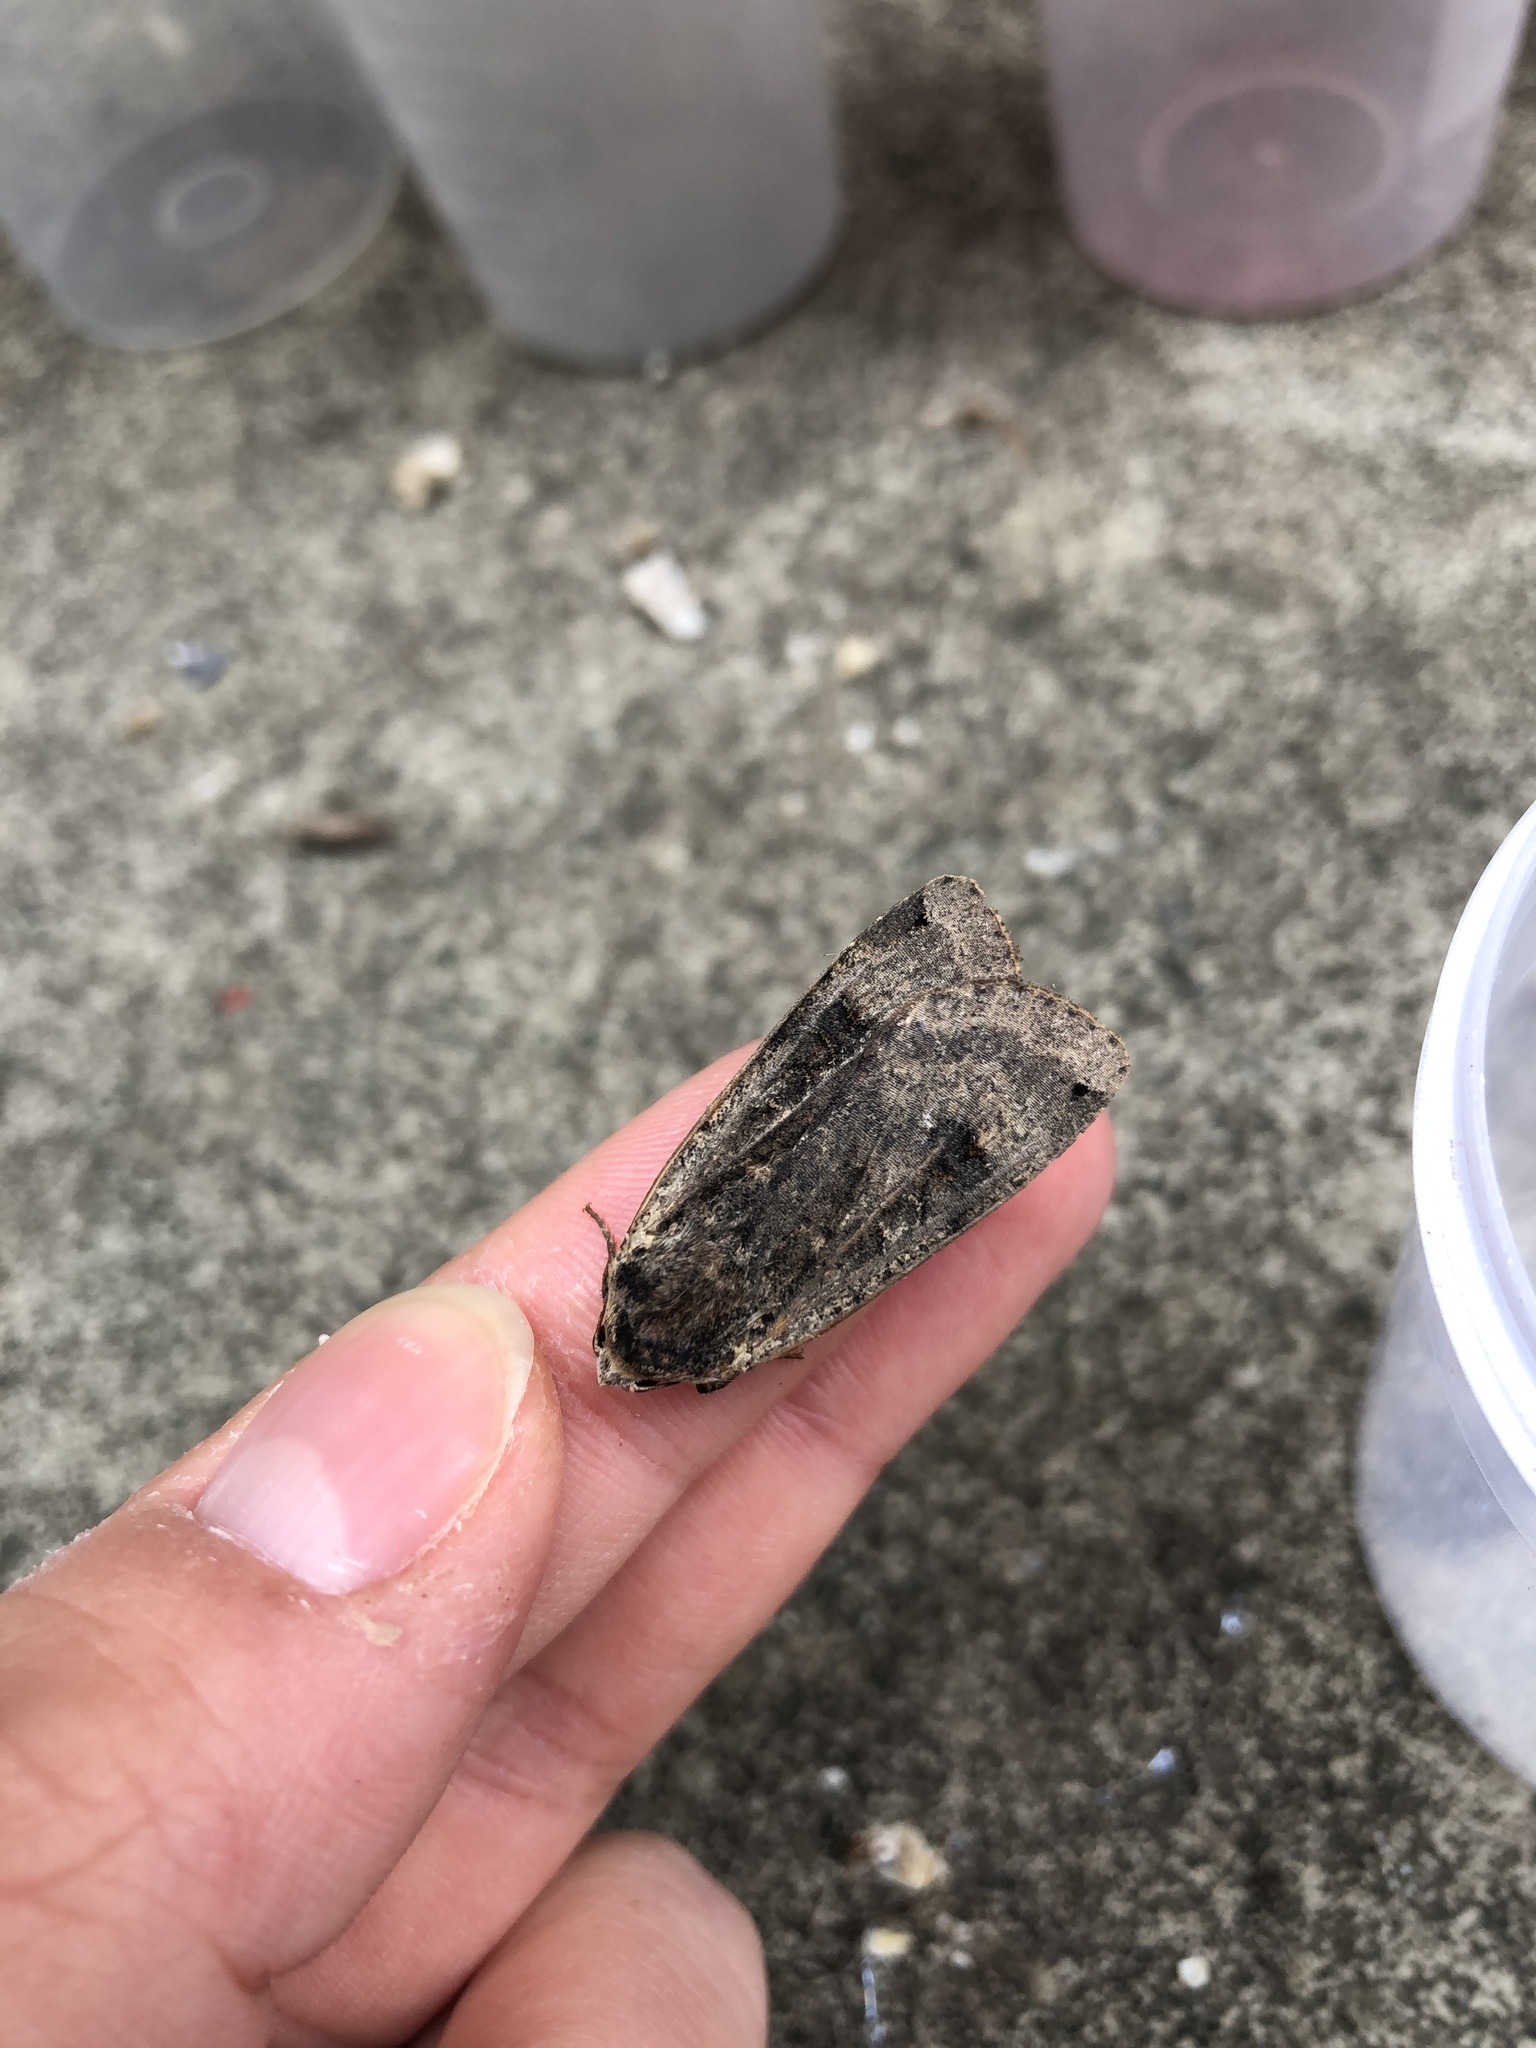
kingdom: Animalia
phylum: Arthropoda
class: Insecta
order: Lepidoptera
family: Noctuidae
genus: Noctua
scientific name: Noctua pronuba
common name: Large yellow underwing
